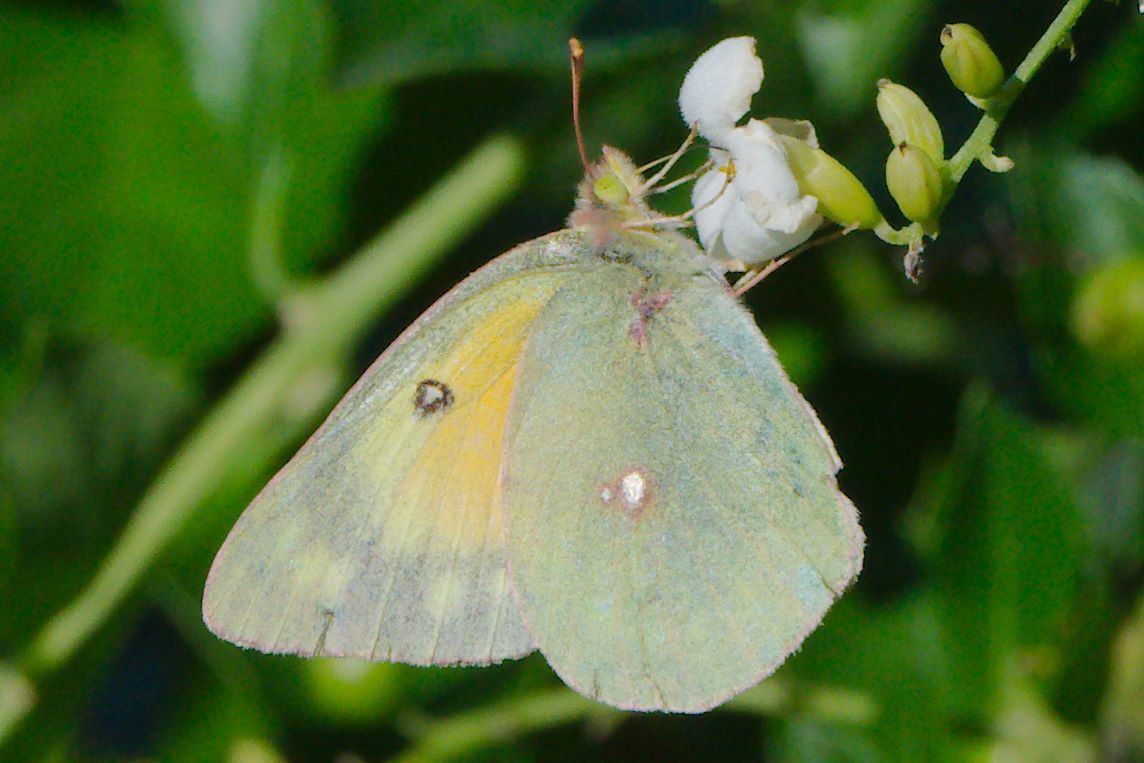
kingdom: Animalia
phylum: Arthropoda
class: Insecta
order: Lepidoptera
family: Pieridae
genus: Colias
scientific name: Colias eurytheme
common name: Alfalfa butterfly
